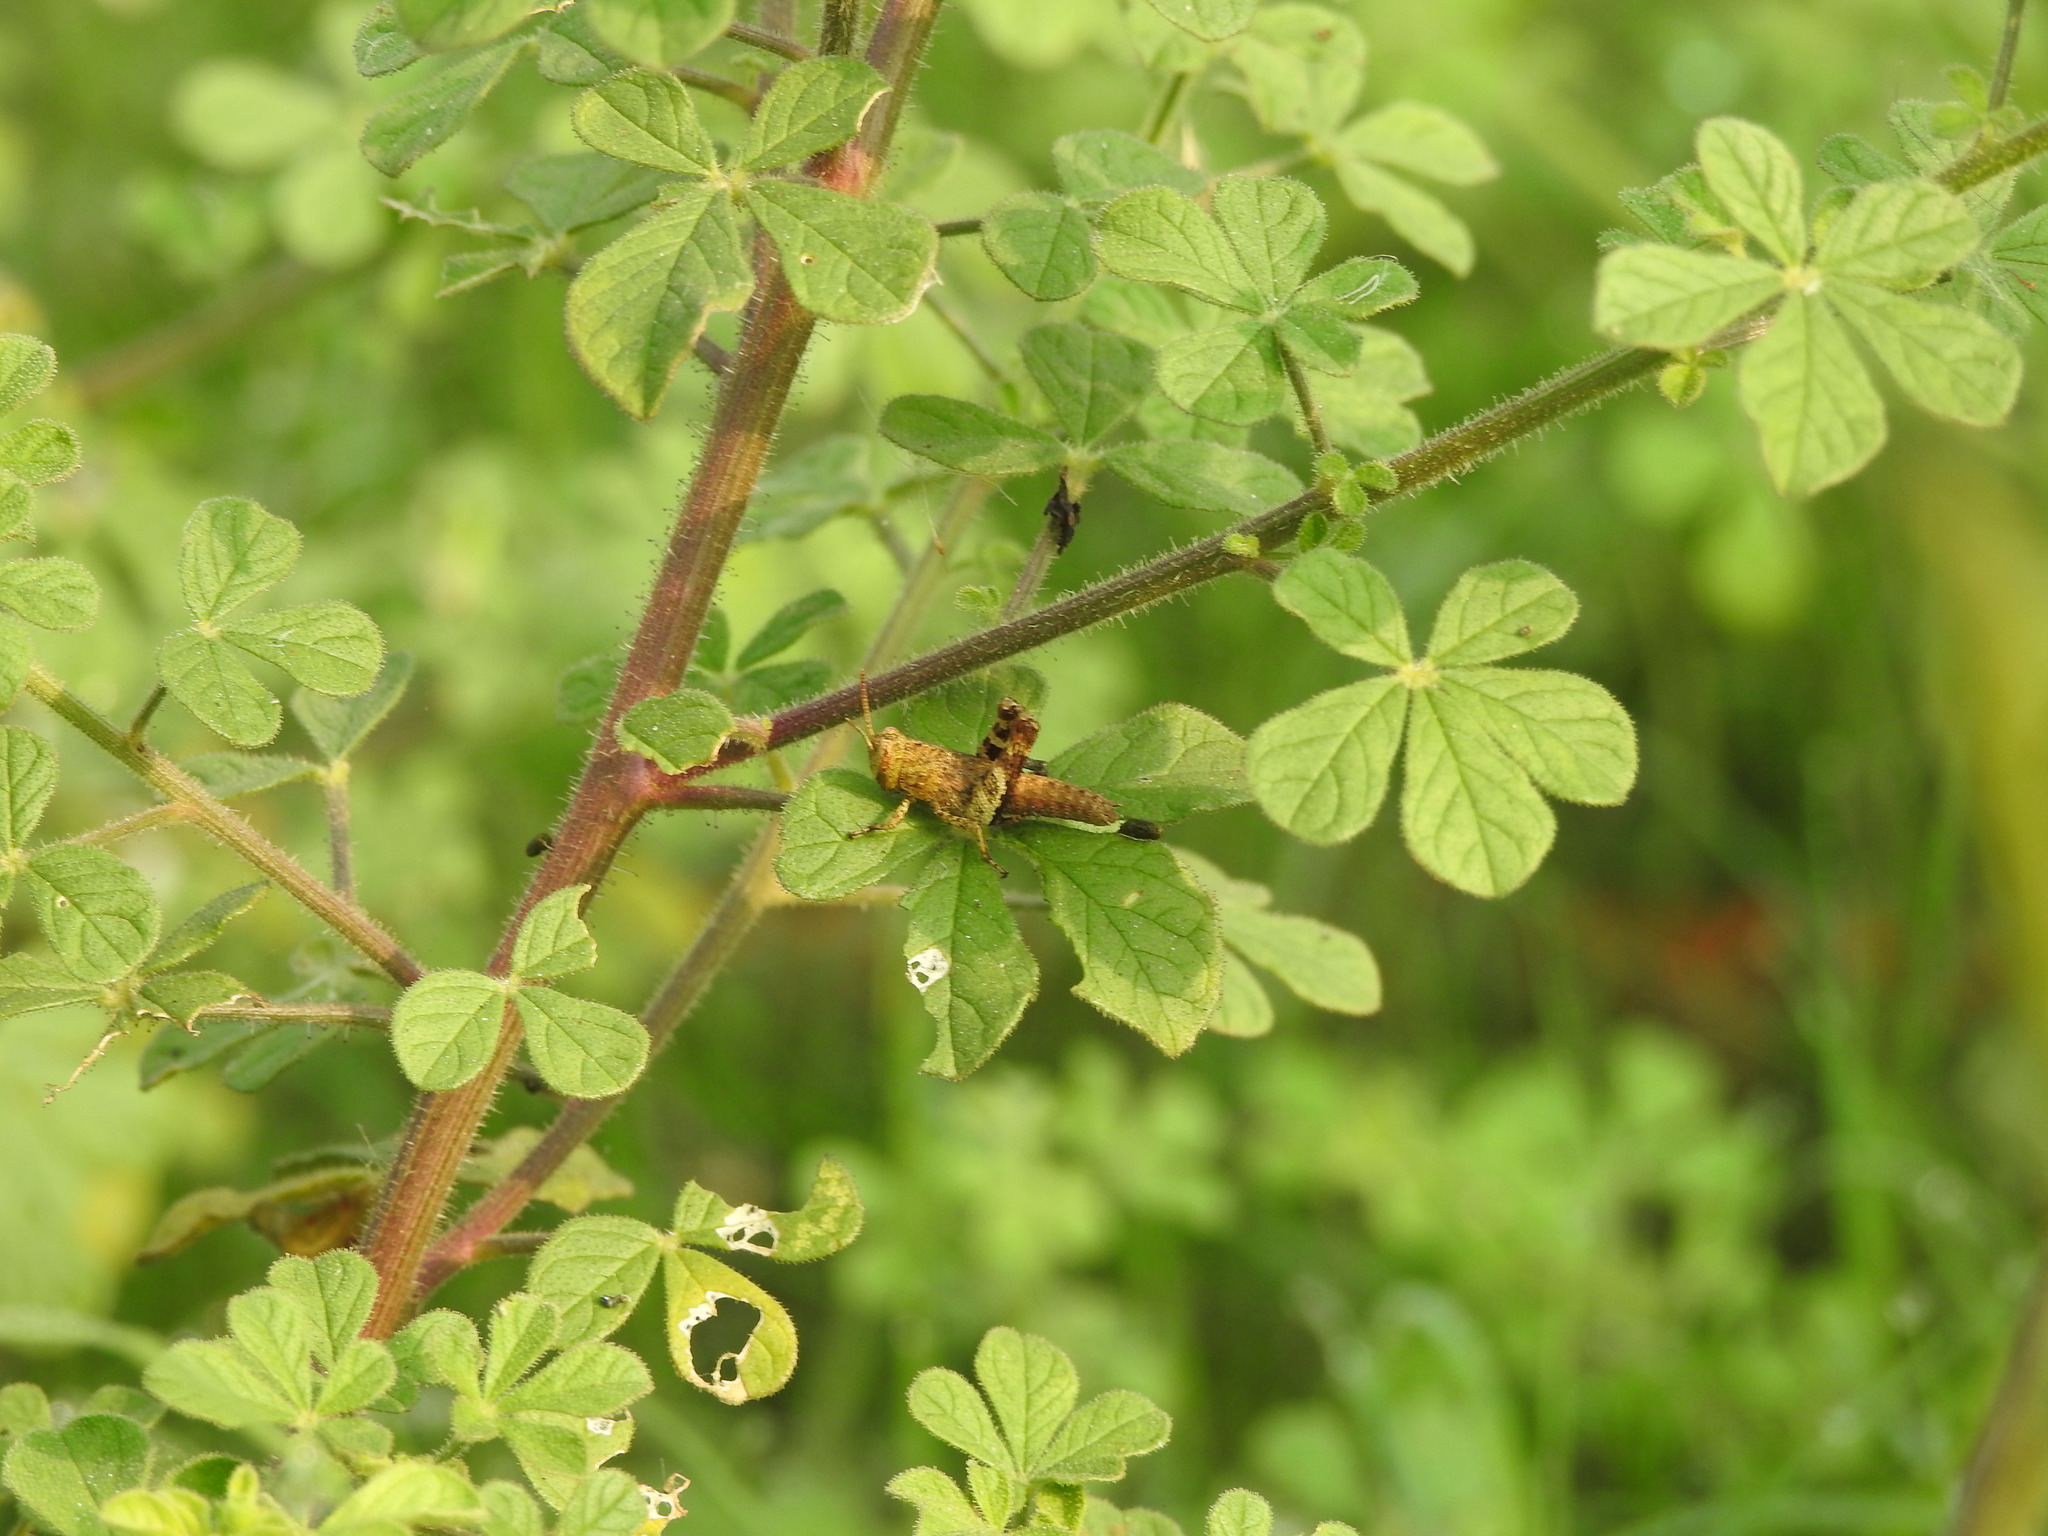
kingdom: Plantae
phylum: Tracheophyta
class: Magnoliopsida
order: Brassicales
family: Cleomaceae
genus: Arivela
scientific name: Arivela viscosa
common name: Asian spiderflower
